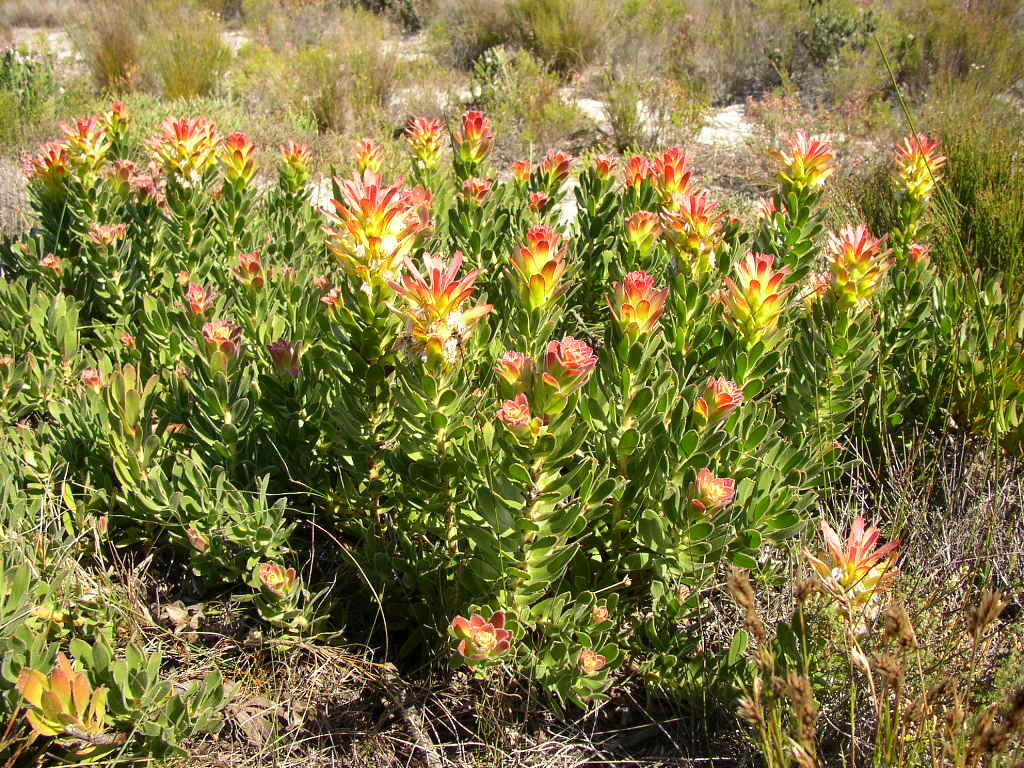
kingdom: Plantae
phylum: Tracheophyta
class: Magnoliopsida
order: Proteales
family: Proteaceae
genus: Mimetes
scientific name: Mimetes cucullatus
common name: Common pagoda
